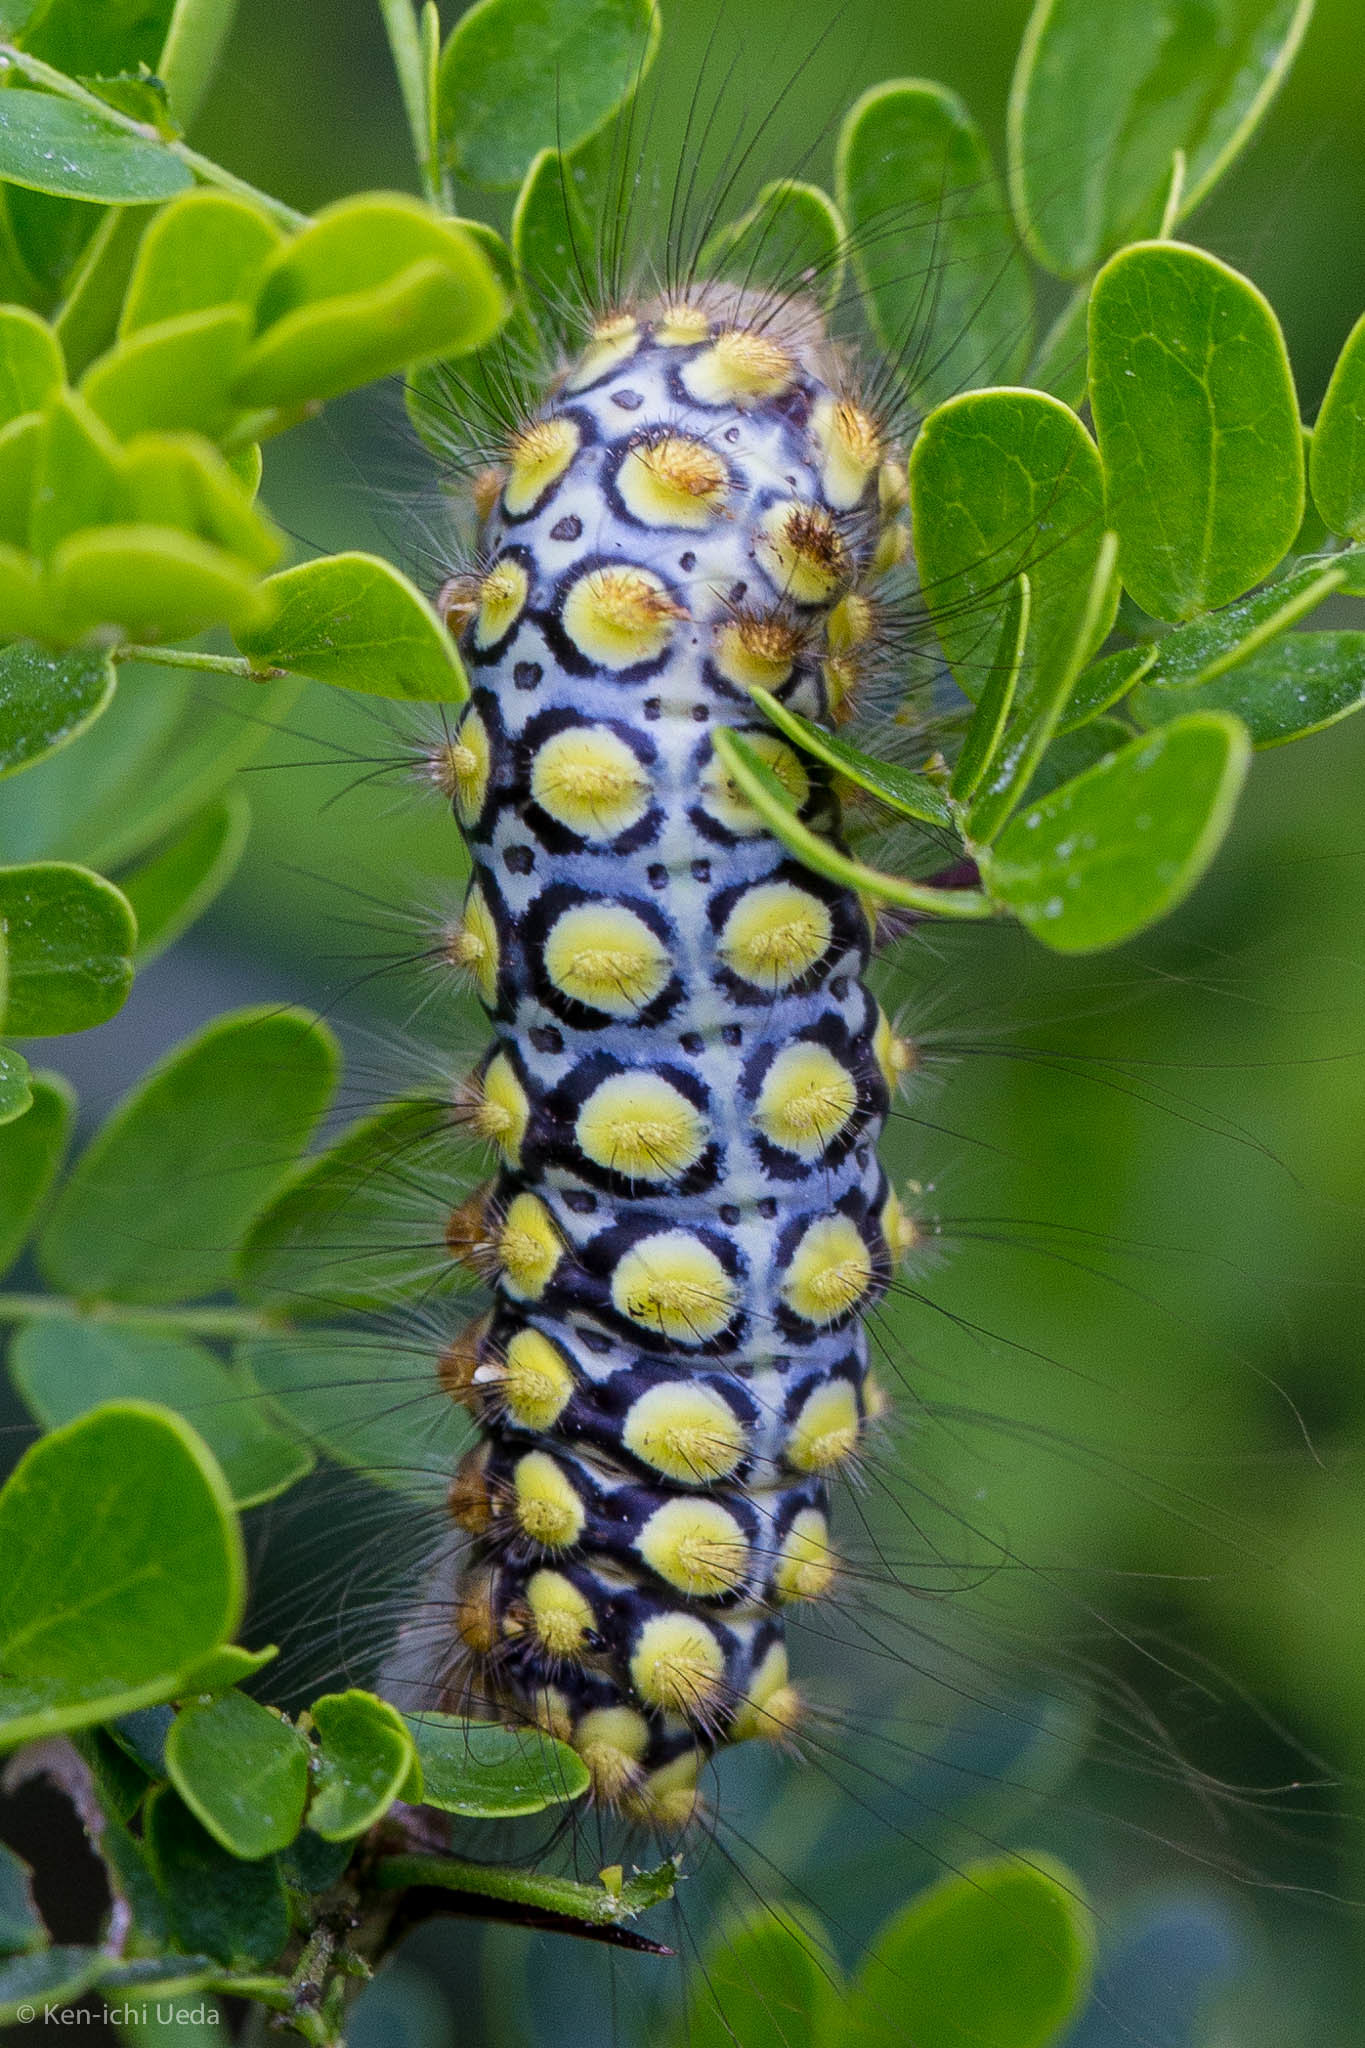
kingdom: Animalia
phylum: Arthropoda
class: Insecta
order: Lepidoptera
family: Megalopygidae
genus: Norape
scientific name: Norape virgo
